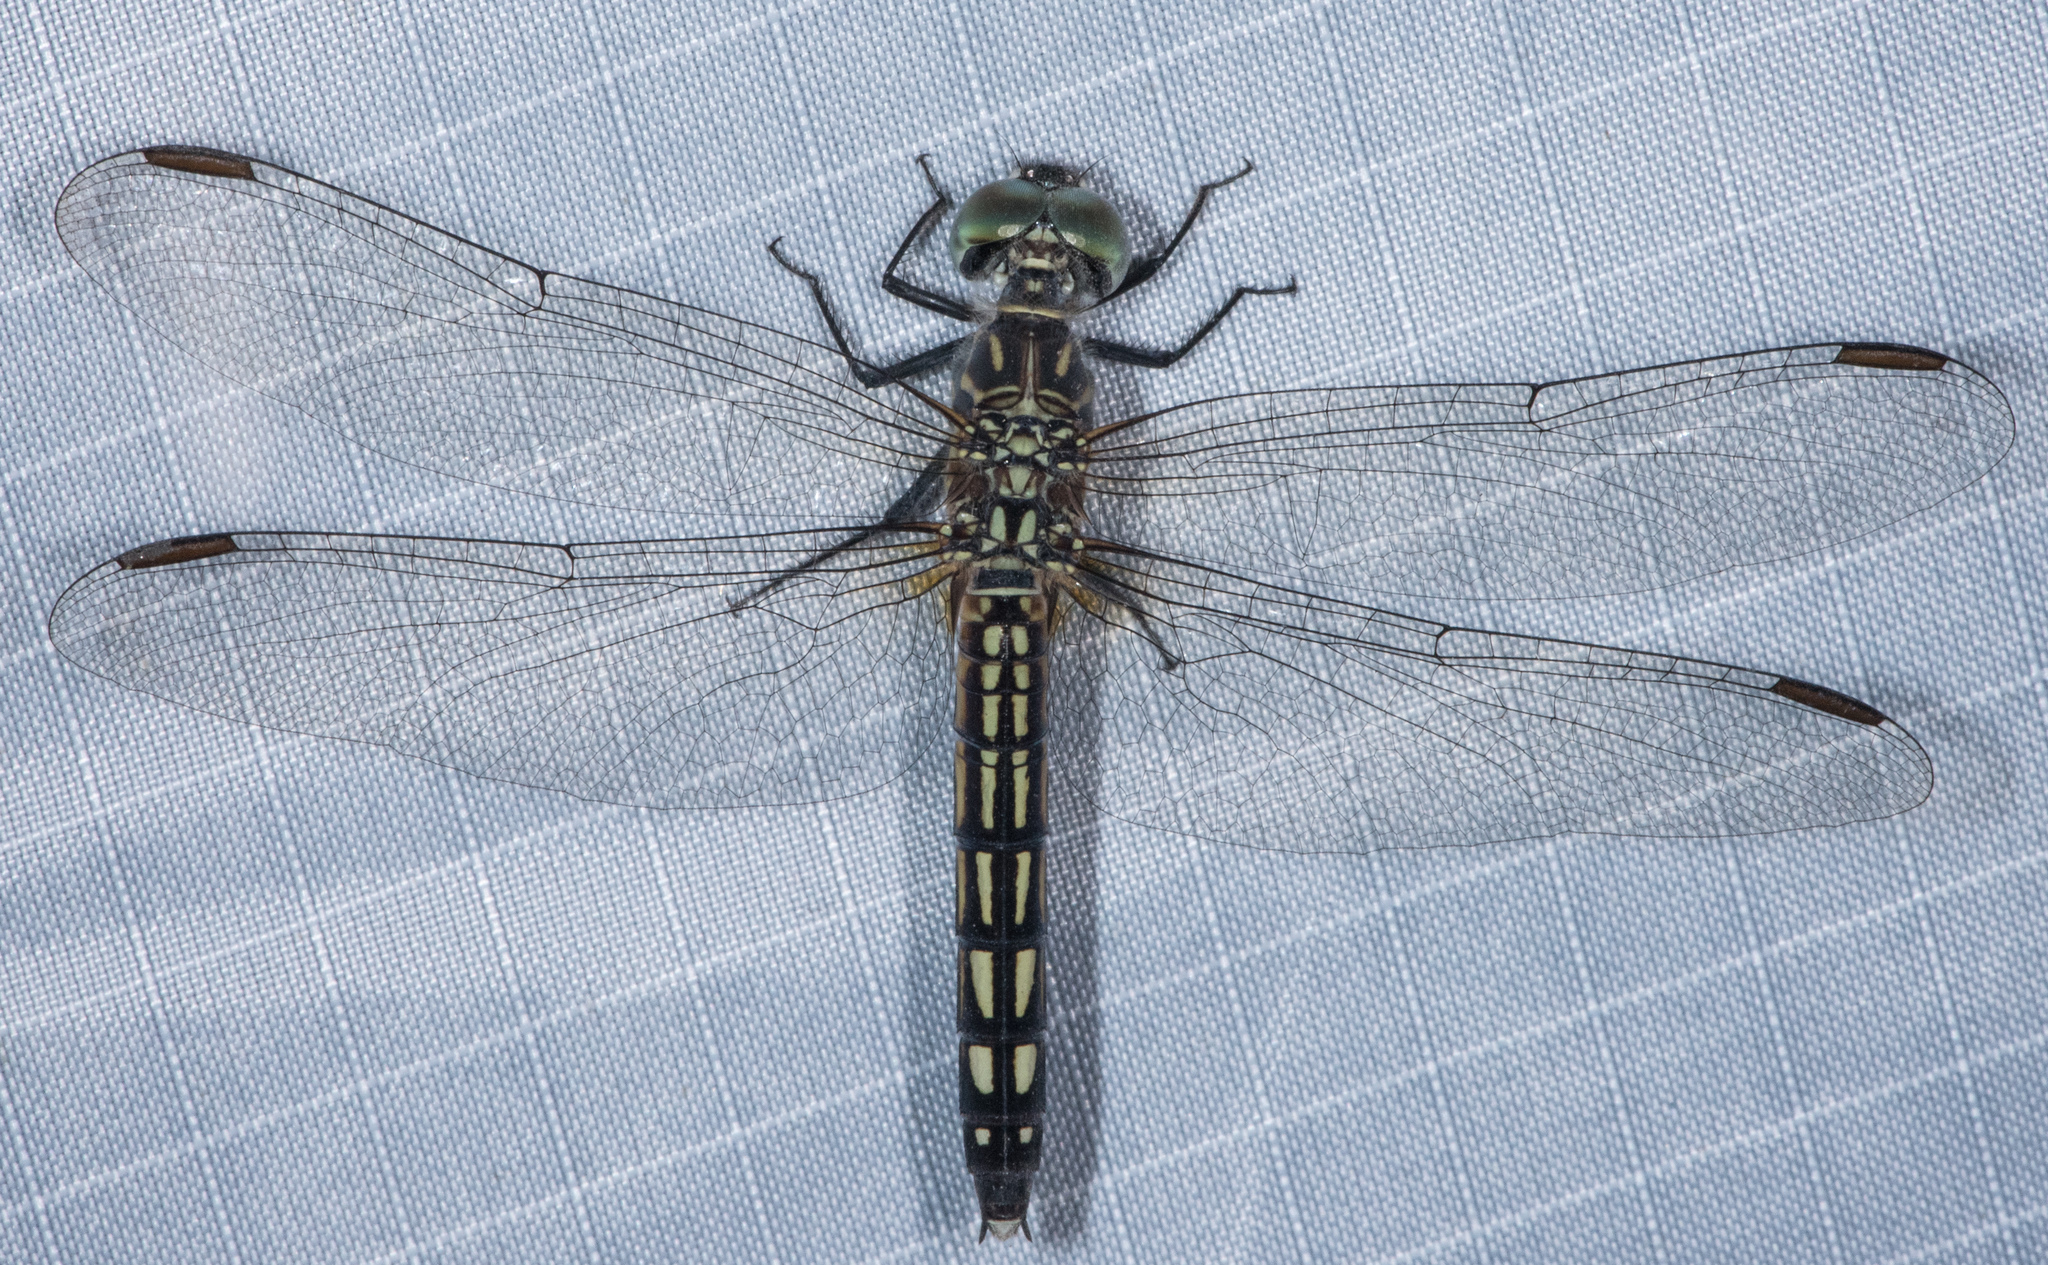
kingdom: Animalia
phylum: Arthropoda
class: Insecta
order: Odonata
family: Libellulidae
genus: Pachydiplax
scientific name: Pachydiplax longipennis
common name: Blue dasher
